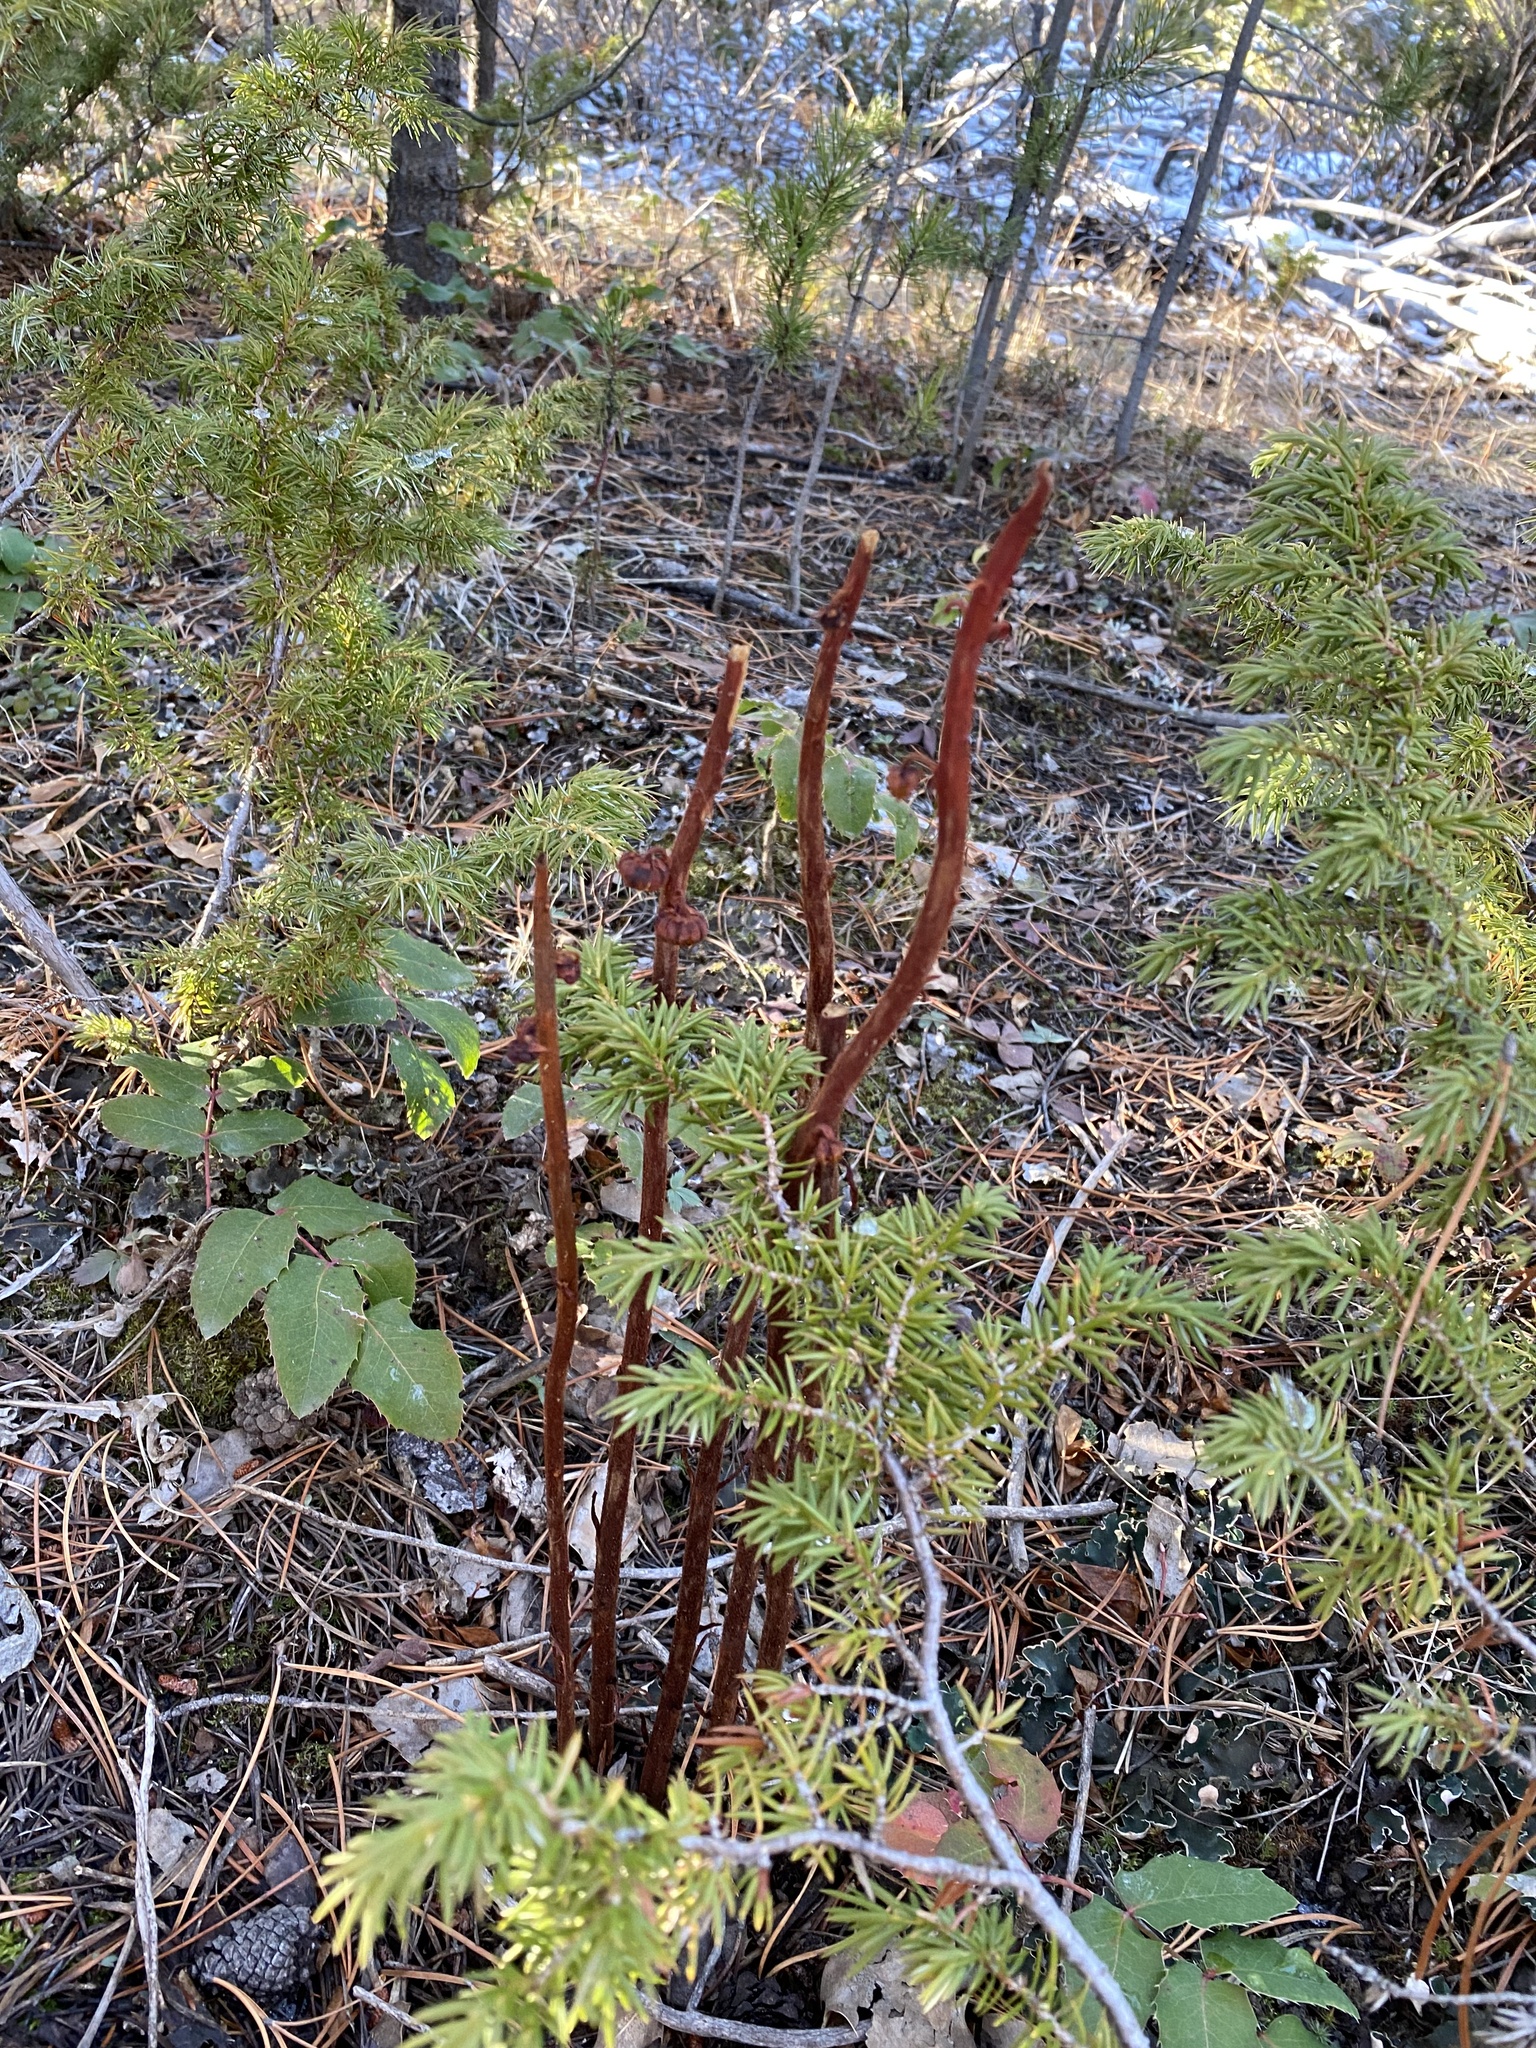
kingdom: Plantae
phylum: Tracheophyta
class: Magnoliopsida
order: Ericales
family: Ericaceae
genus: Pterospora
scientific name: Pterospora andromedea
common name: Giant bird's-nest
